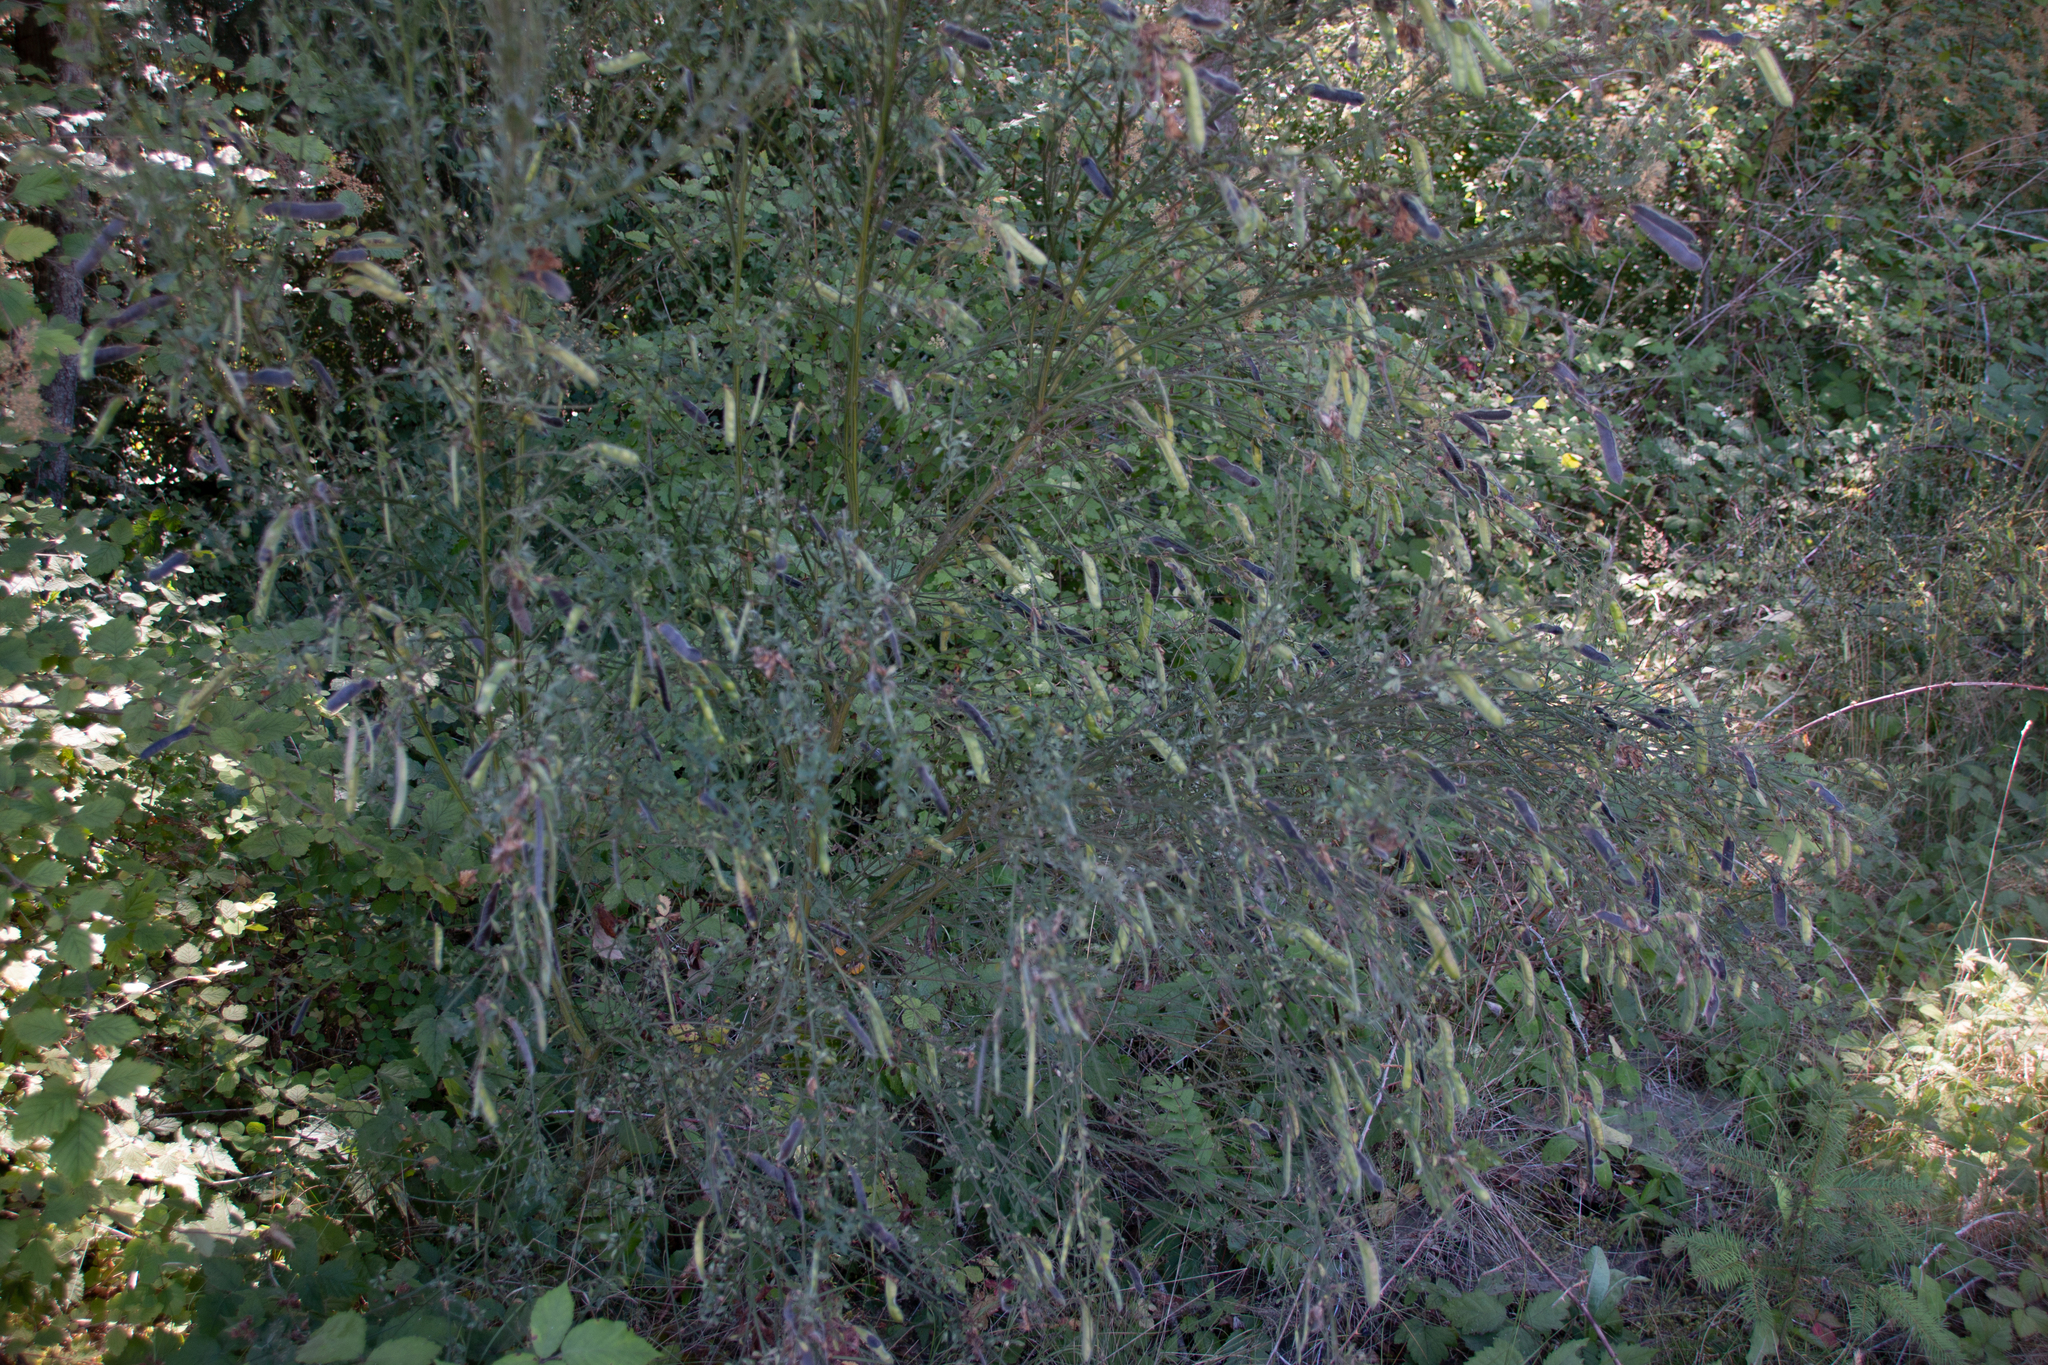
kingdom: Plantae
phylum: Tracheophyta
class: Magnoliopsida
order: Fabales
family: Fabaceae
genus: Cytisus
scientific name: Cytisus scoparius
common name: Scotch broom
